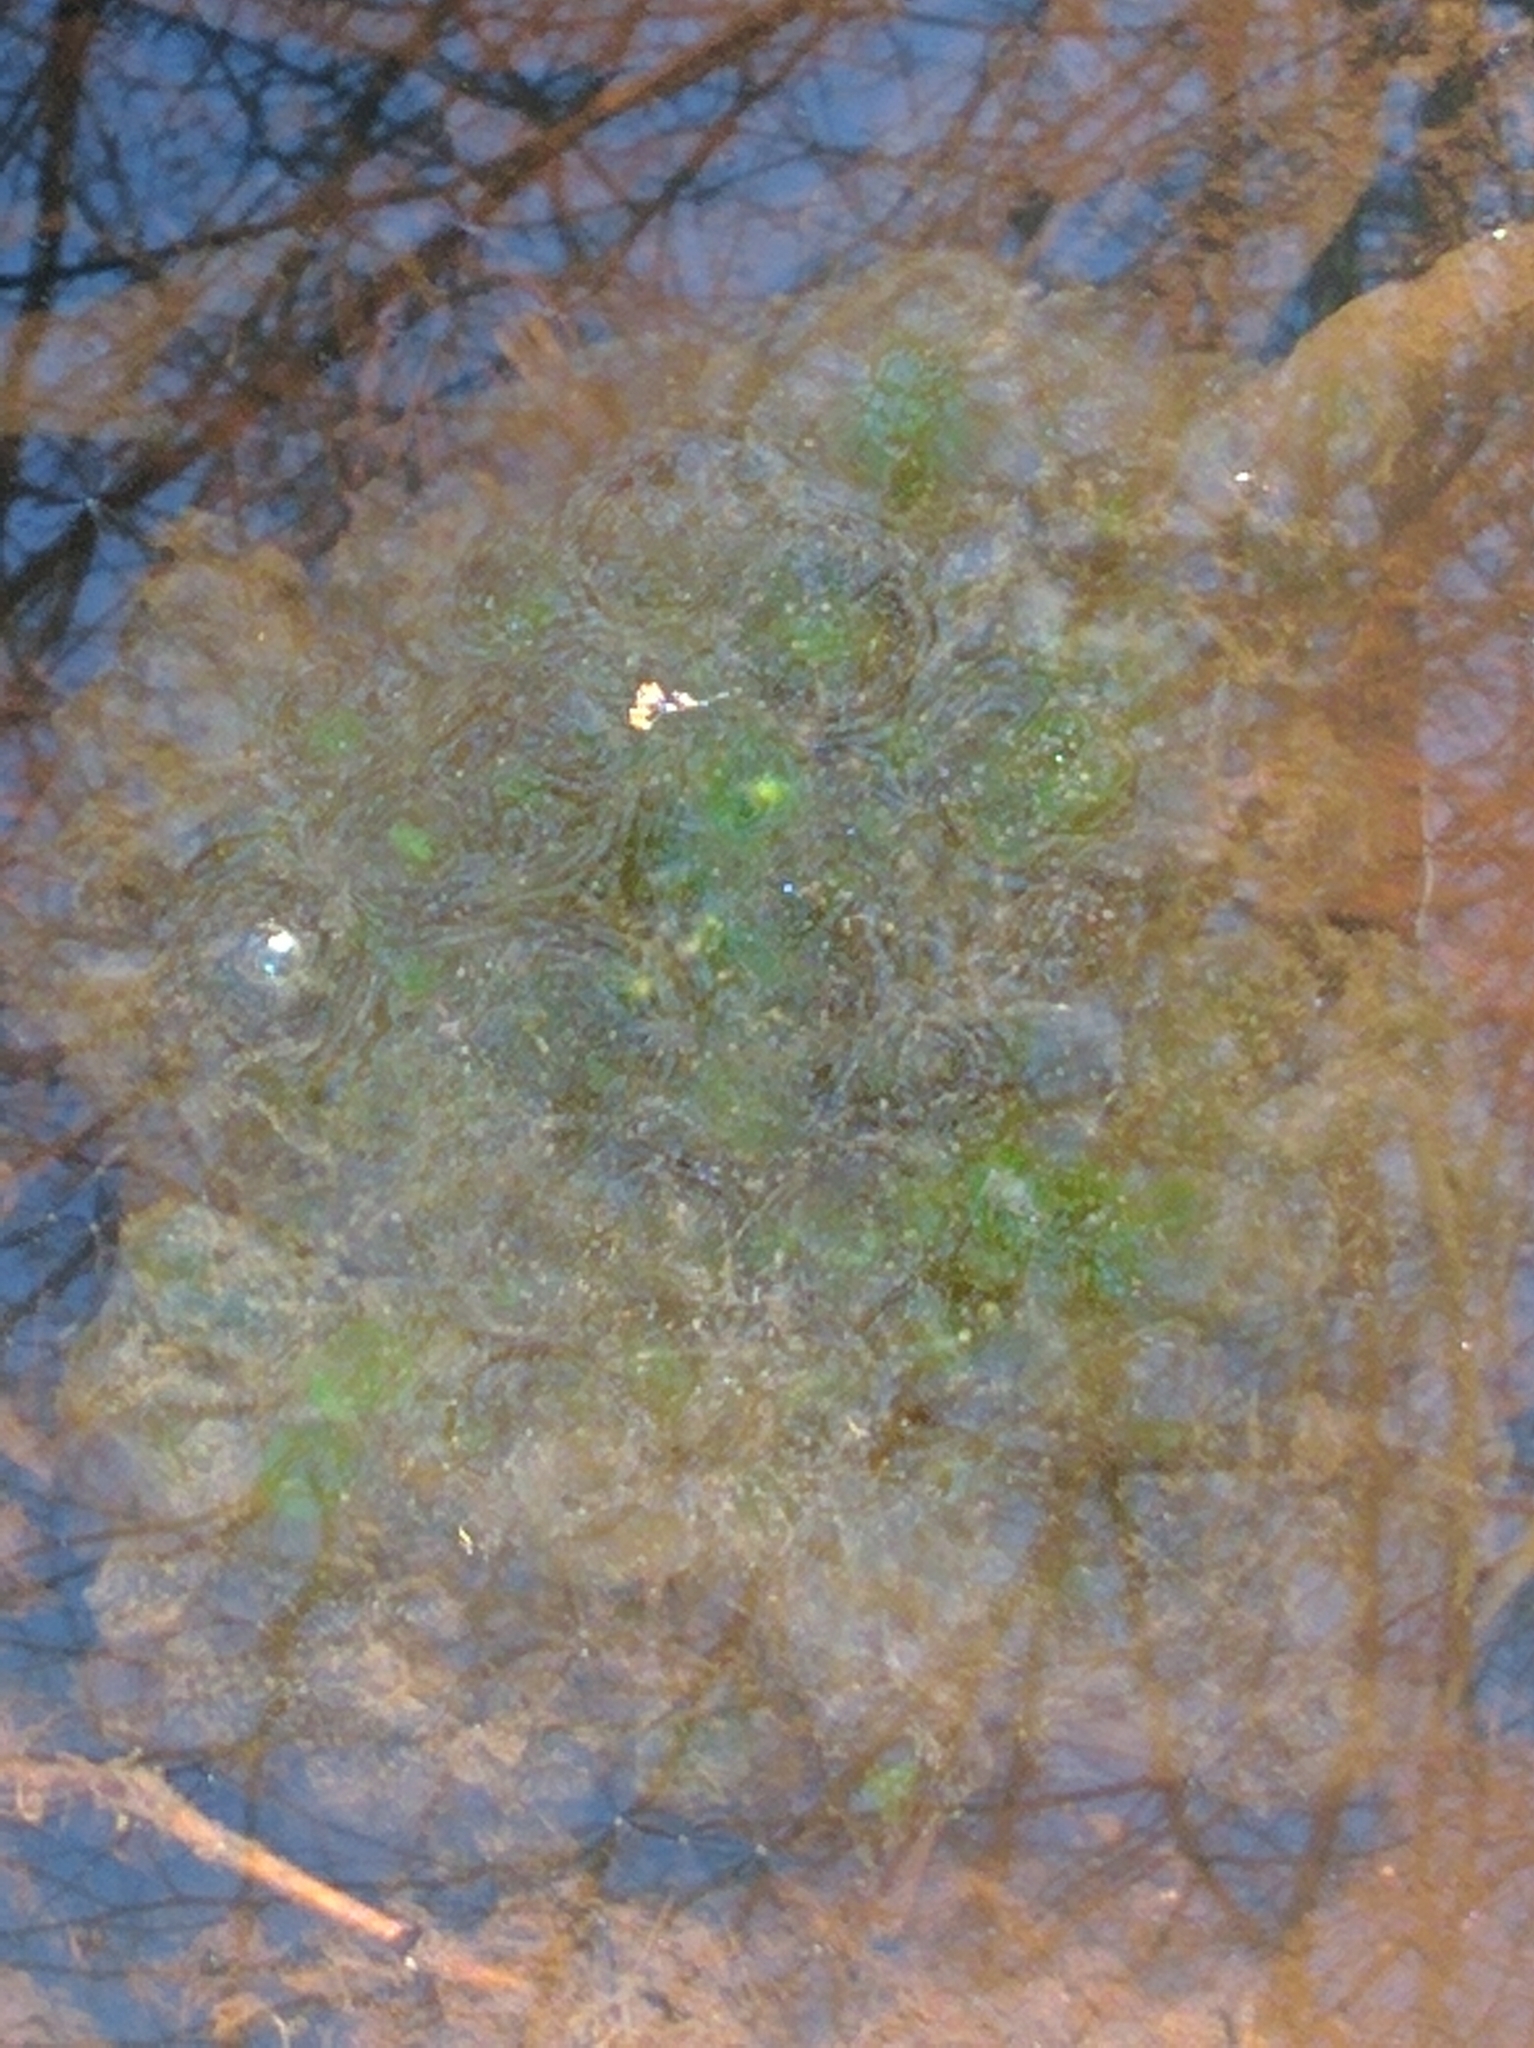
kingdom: Animalia
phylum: Chordata
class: Amphibia
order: Caudata
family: Ambystomatidae
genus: Ambystoma
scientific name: Ambystoma maculatum
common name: Spotted salamander
